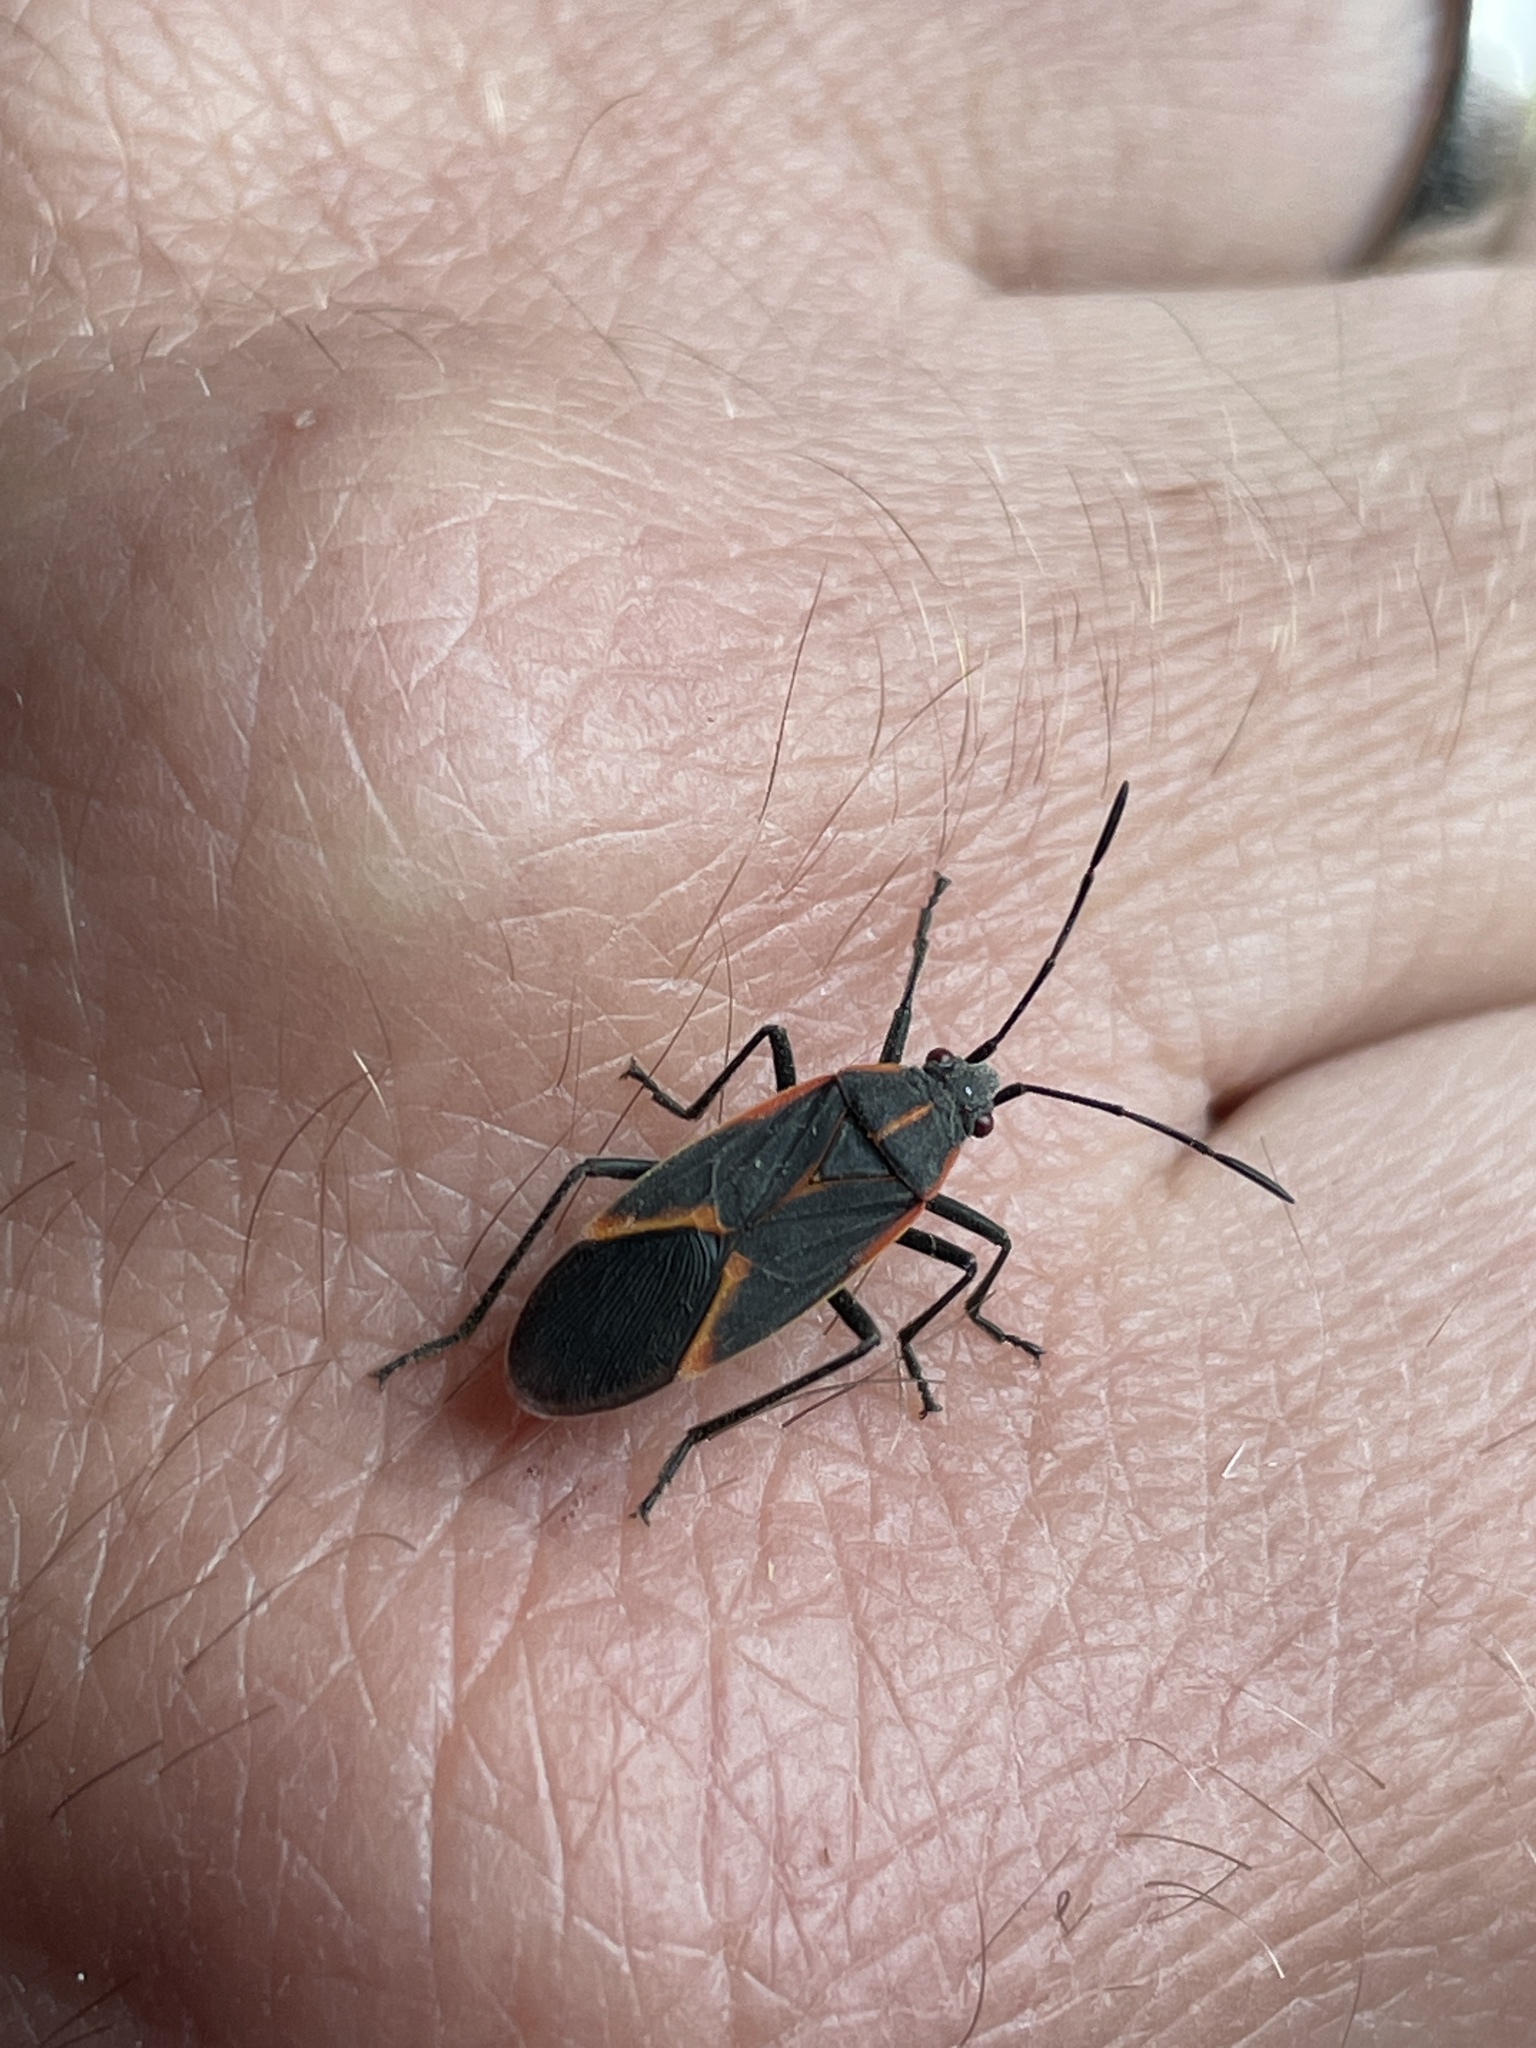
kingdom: Animalia
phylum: Arthropoda
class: Insecta
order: Hemiptera
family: Rhopalidae
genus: Boisea
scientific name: Boisea trivittata
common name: Boxelder bug
